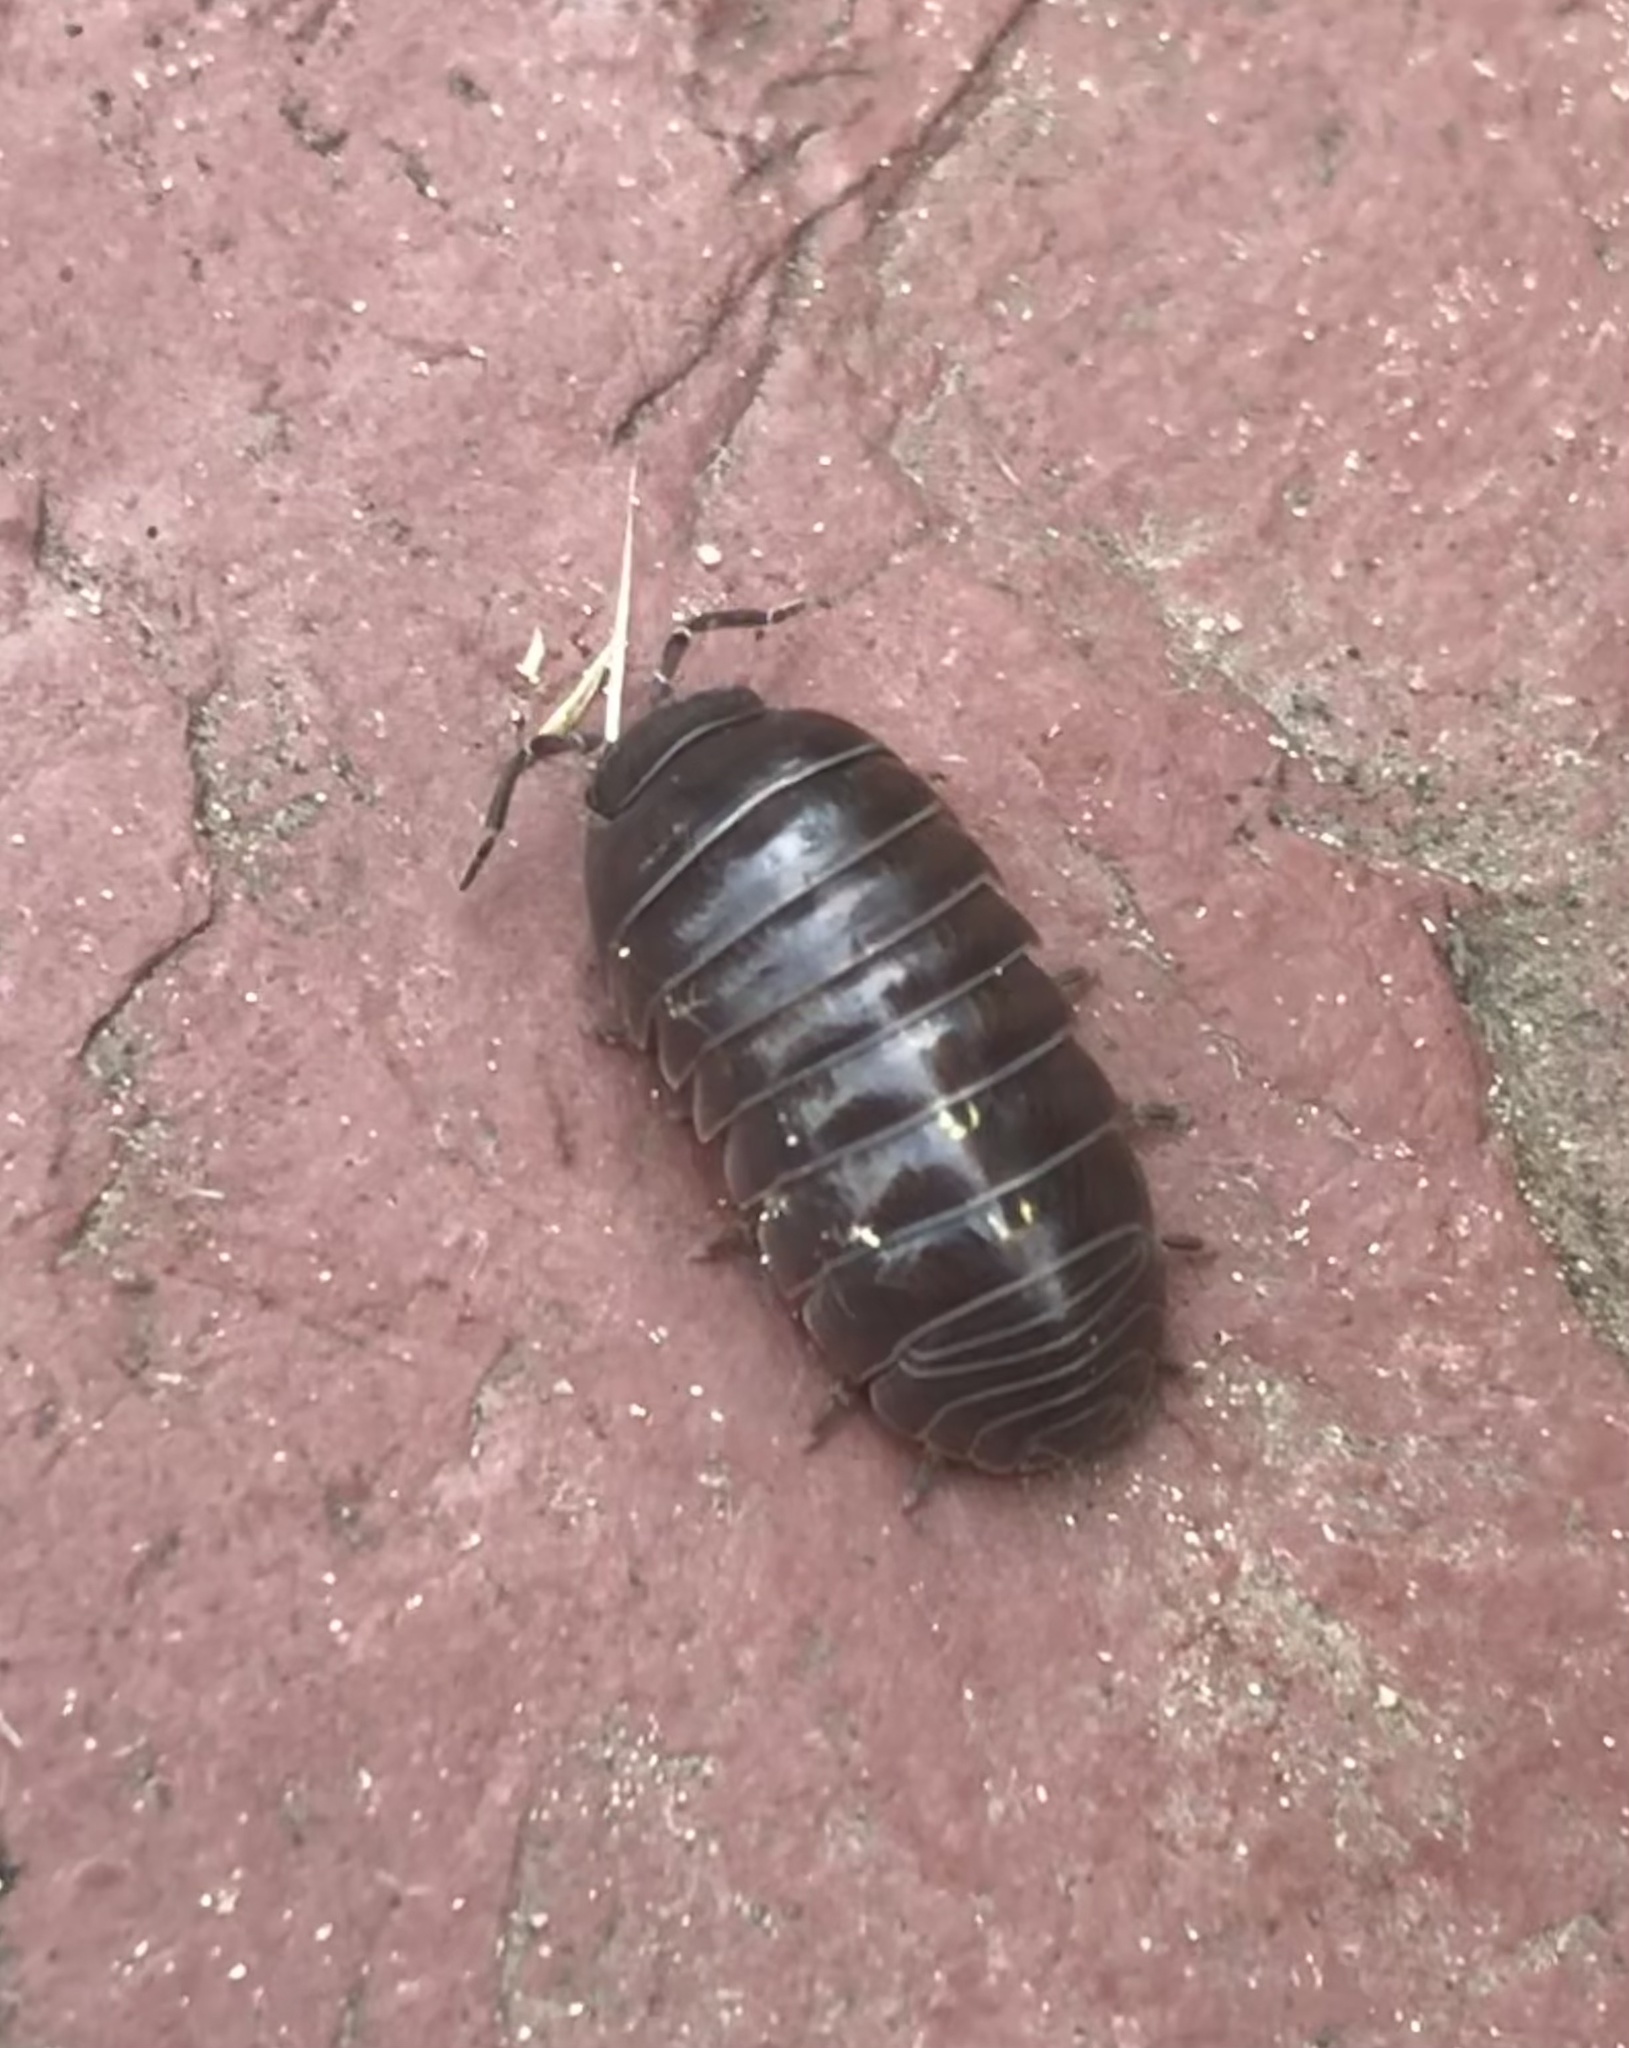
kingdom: Animalia
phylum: Arthropoda
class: Malacostraca
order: Isopoda
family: Armadillidiidae
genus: Armadillidium
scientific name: Armadillidium vulgare
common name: Common pill woodlouse
